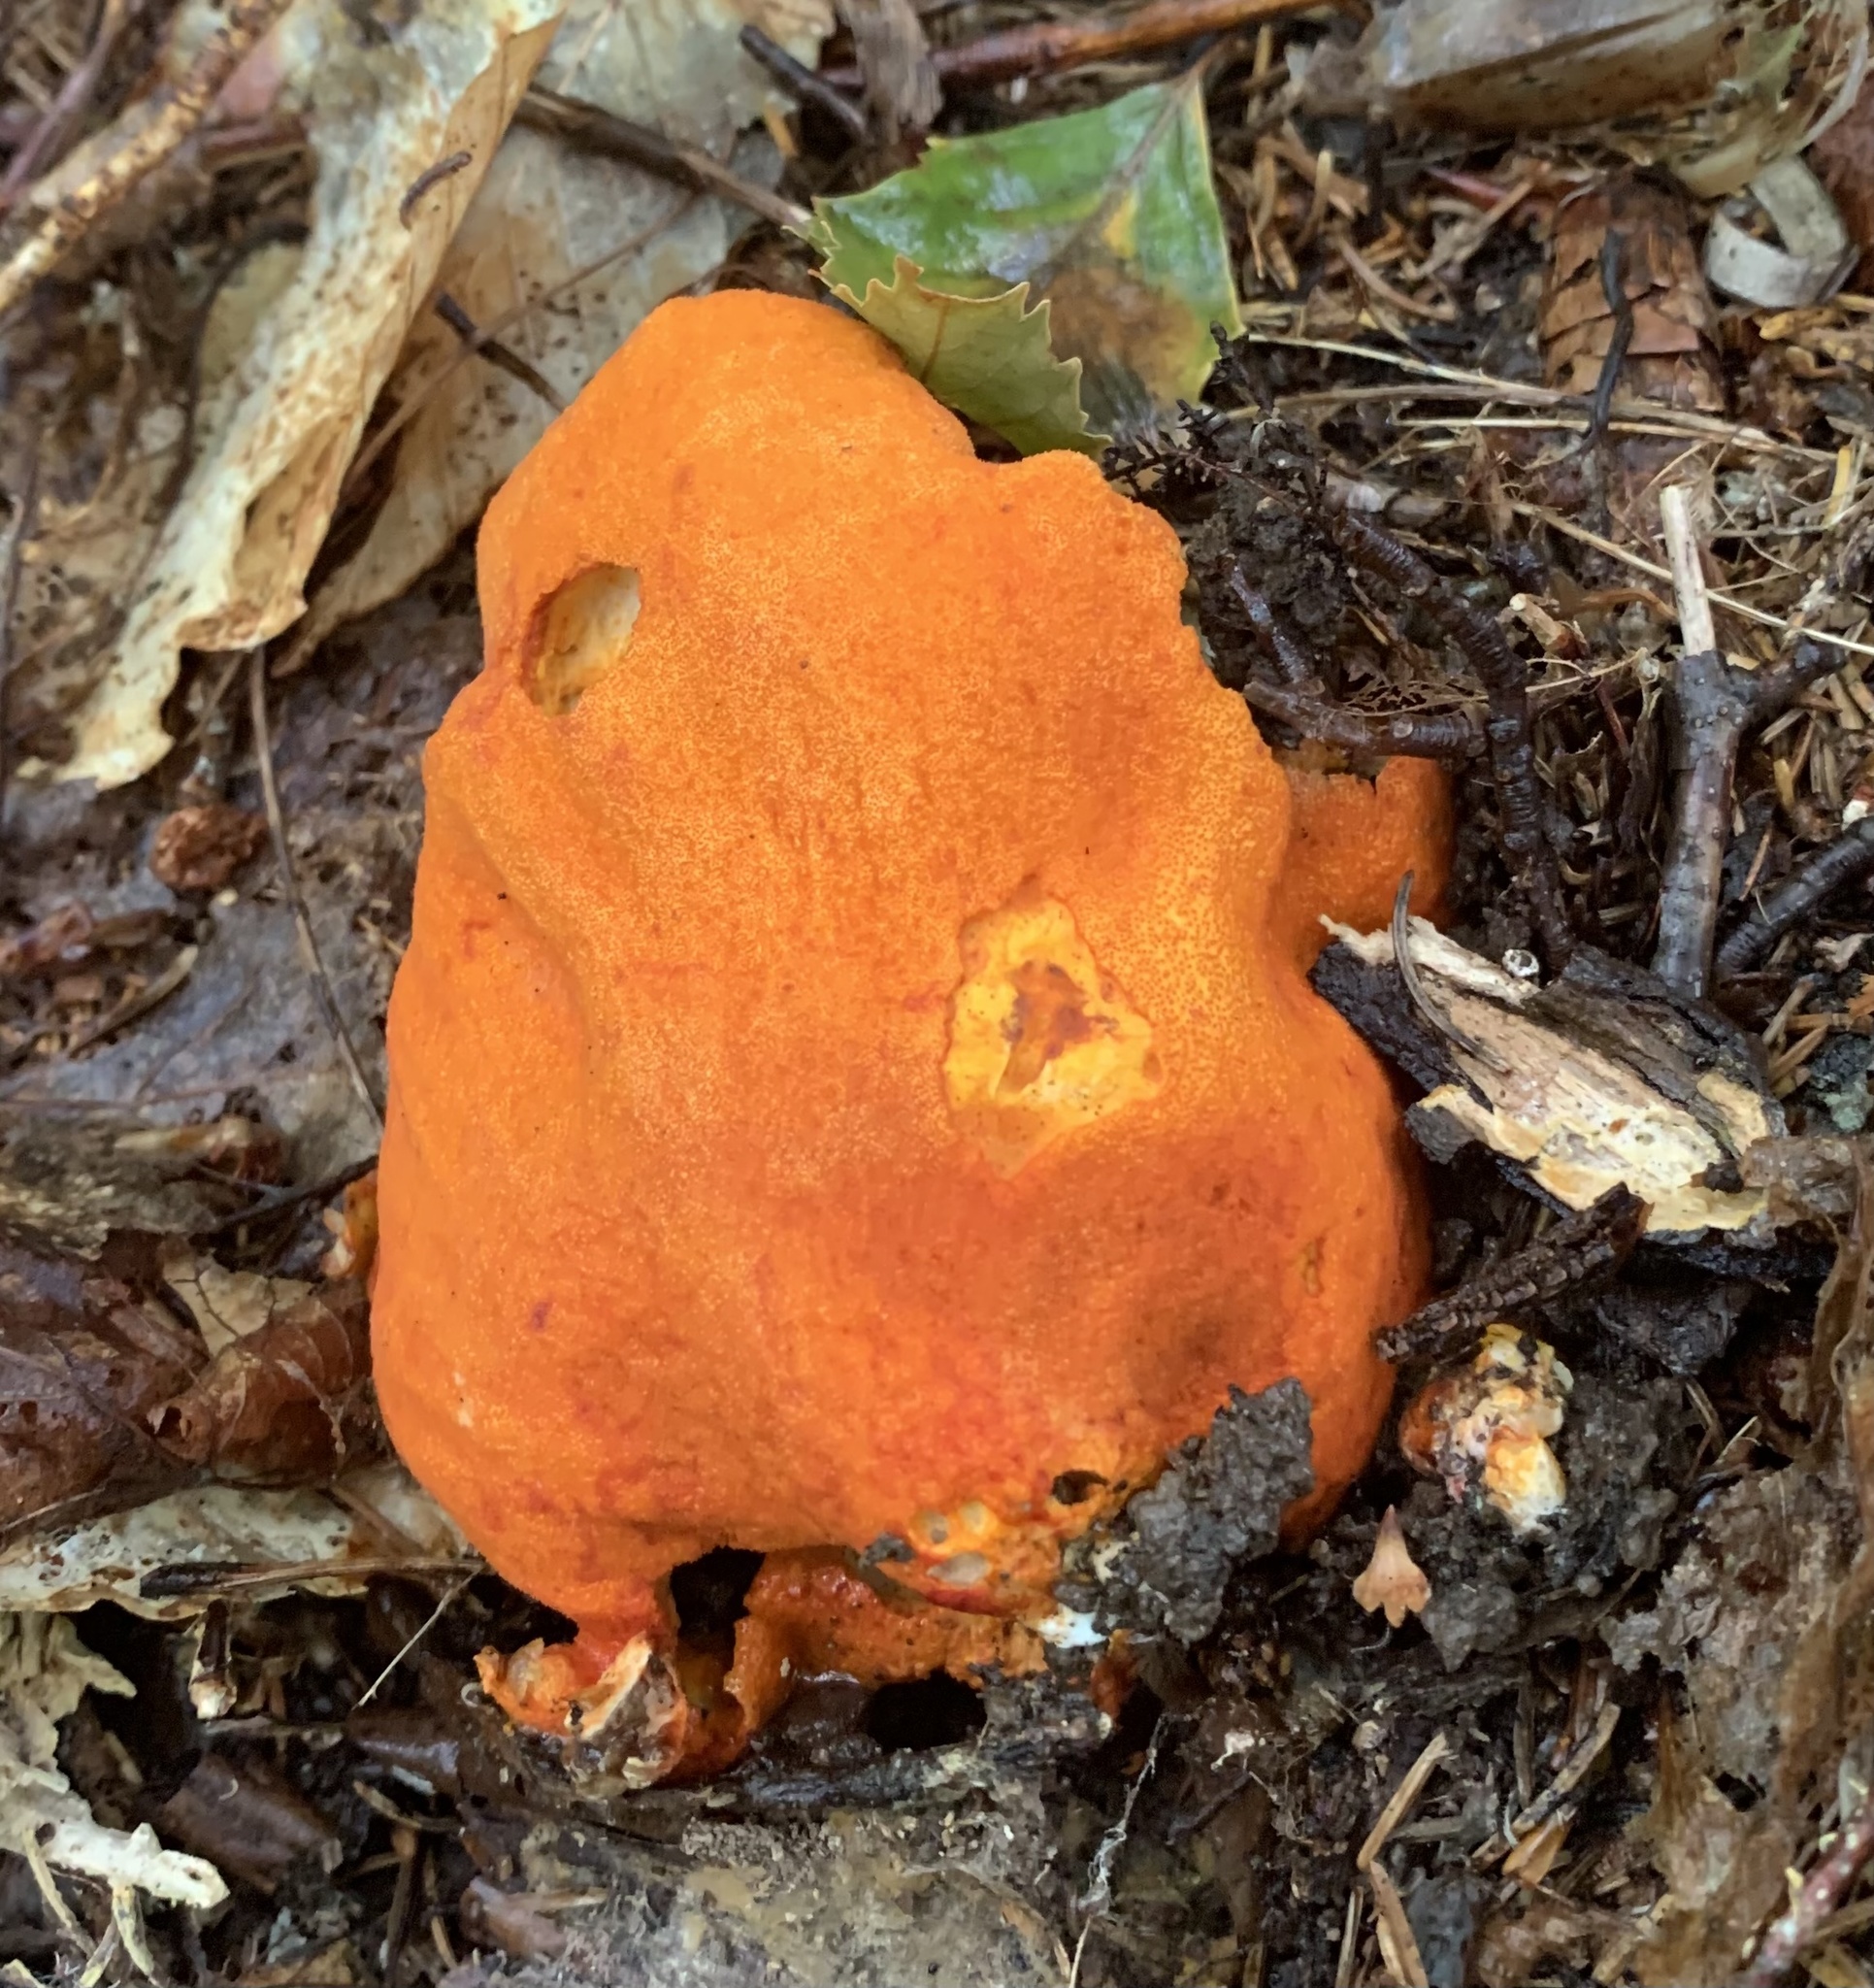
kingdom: Fungi
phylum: Ascomycota
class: Sordariomycetes
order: Hypocreales
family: Hypocreaceae
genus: Hypomyces
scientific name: Hypomyces lactifluorum
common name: Lobster mushroom
